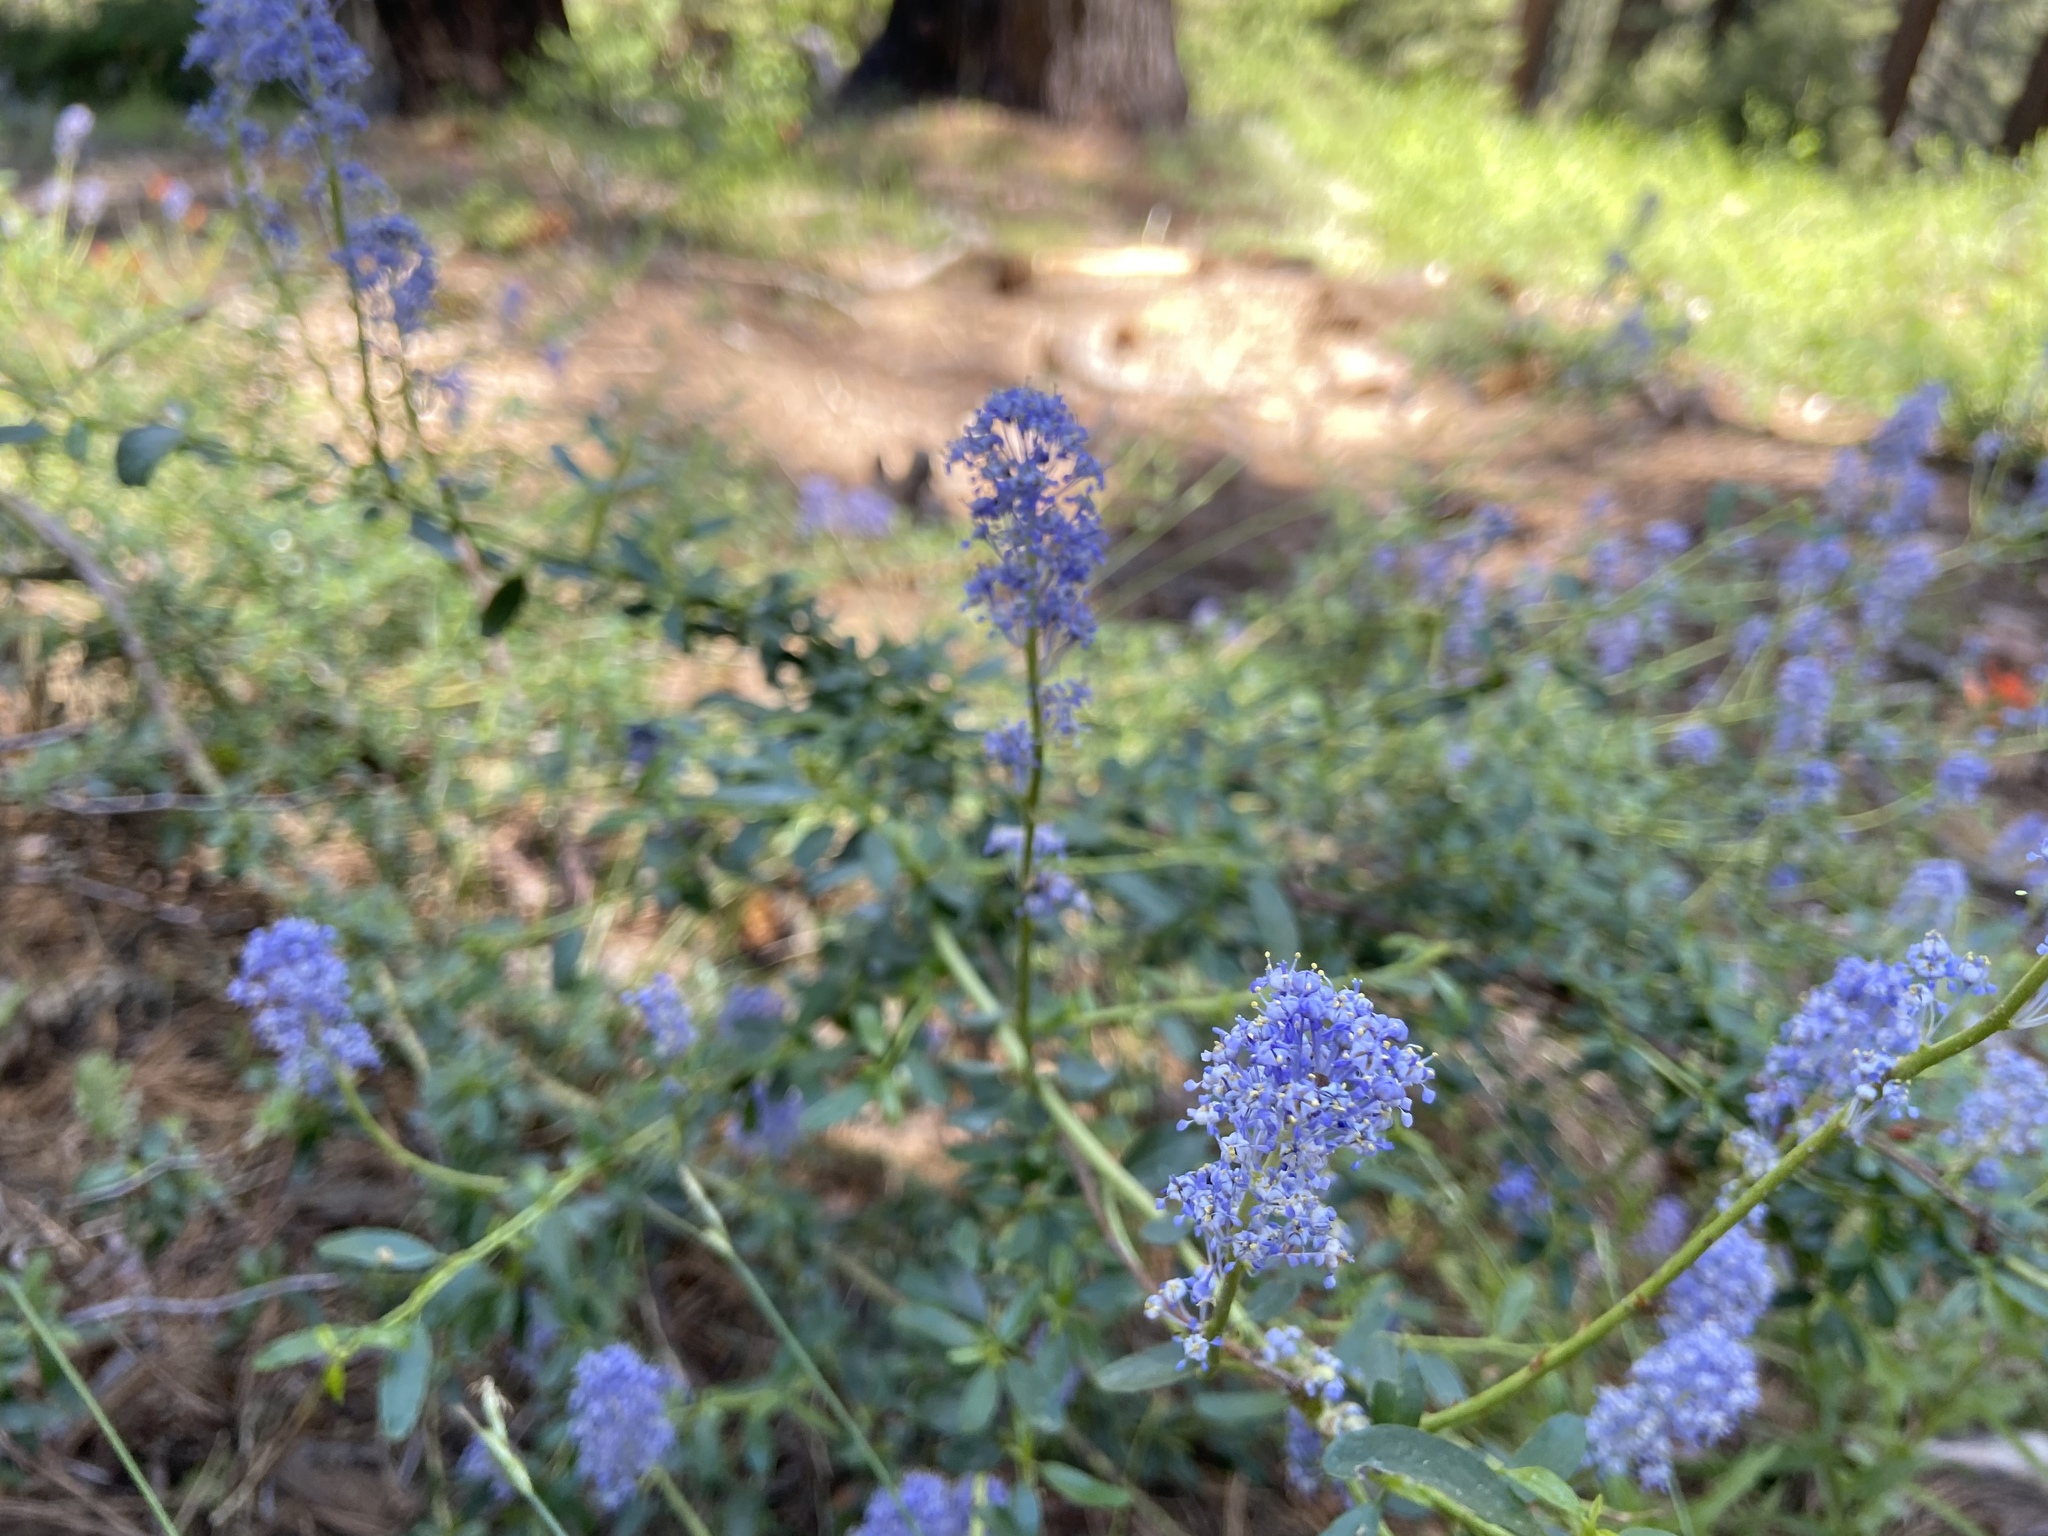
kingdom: Plantae
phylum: Tracheophyta
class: Magnoliopsida
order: Rosales
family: Rhamnaceae
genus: Ceanothus
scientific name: Ceanothus parvifolius
